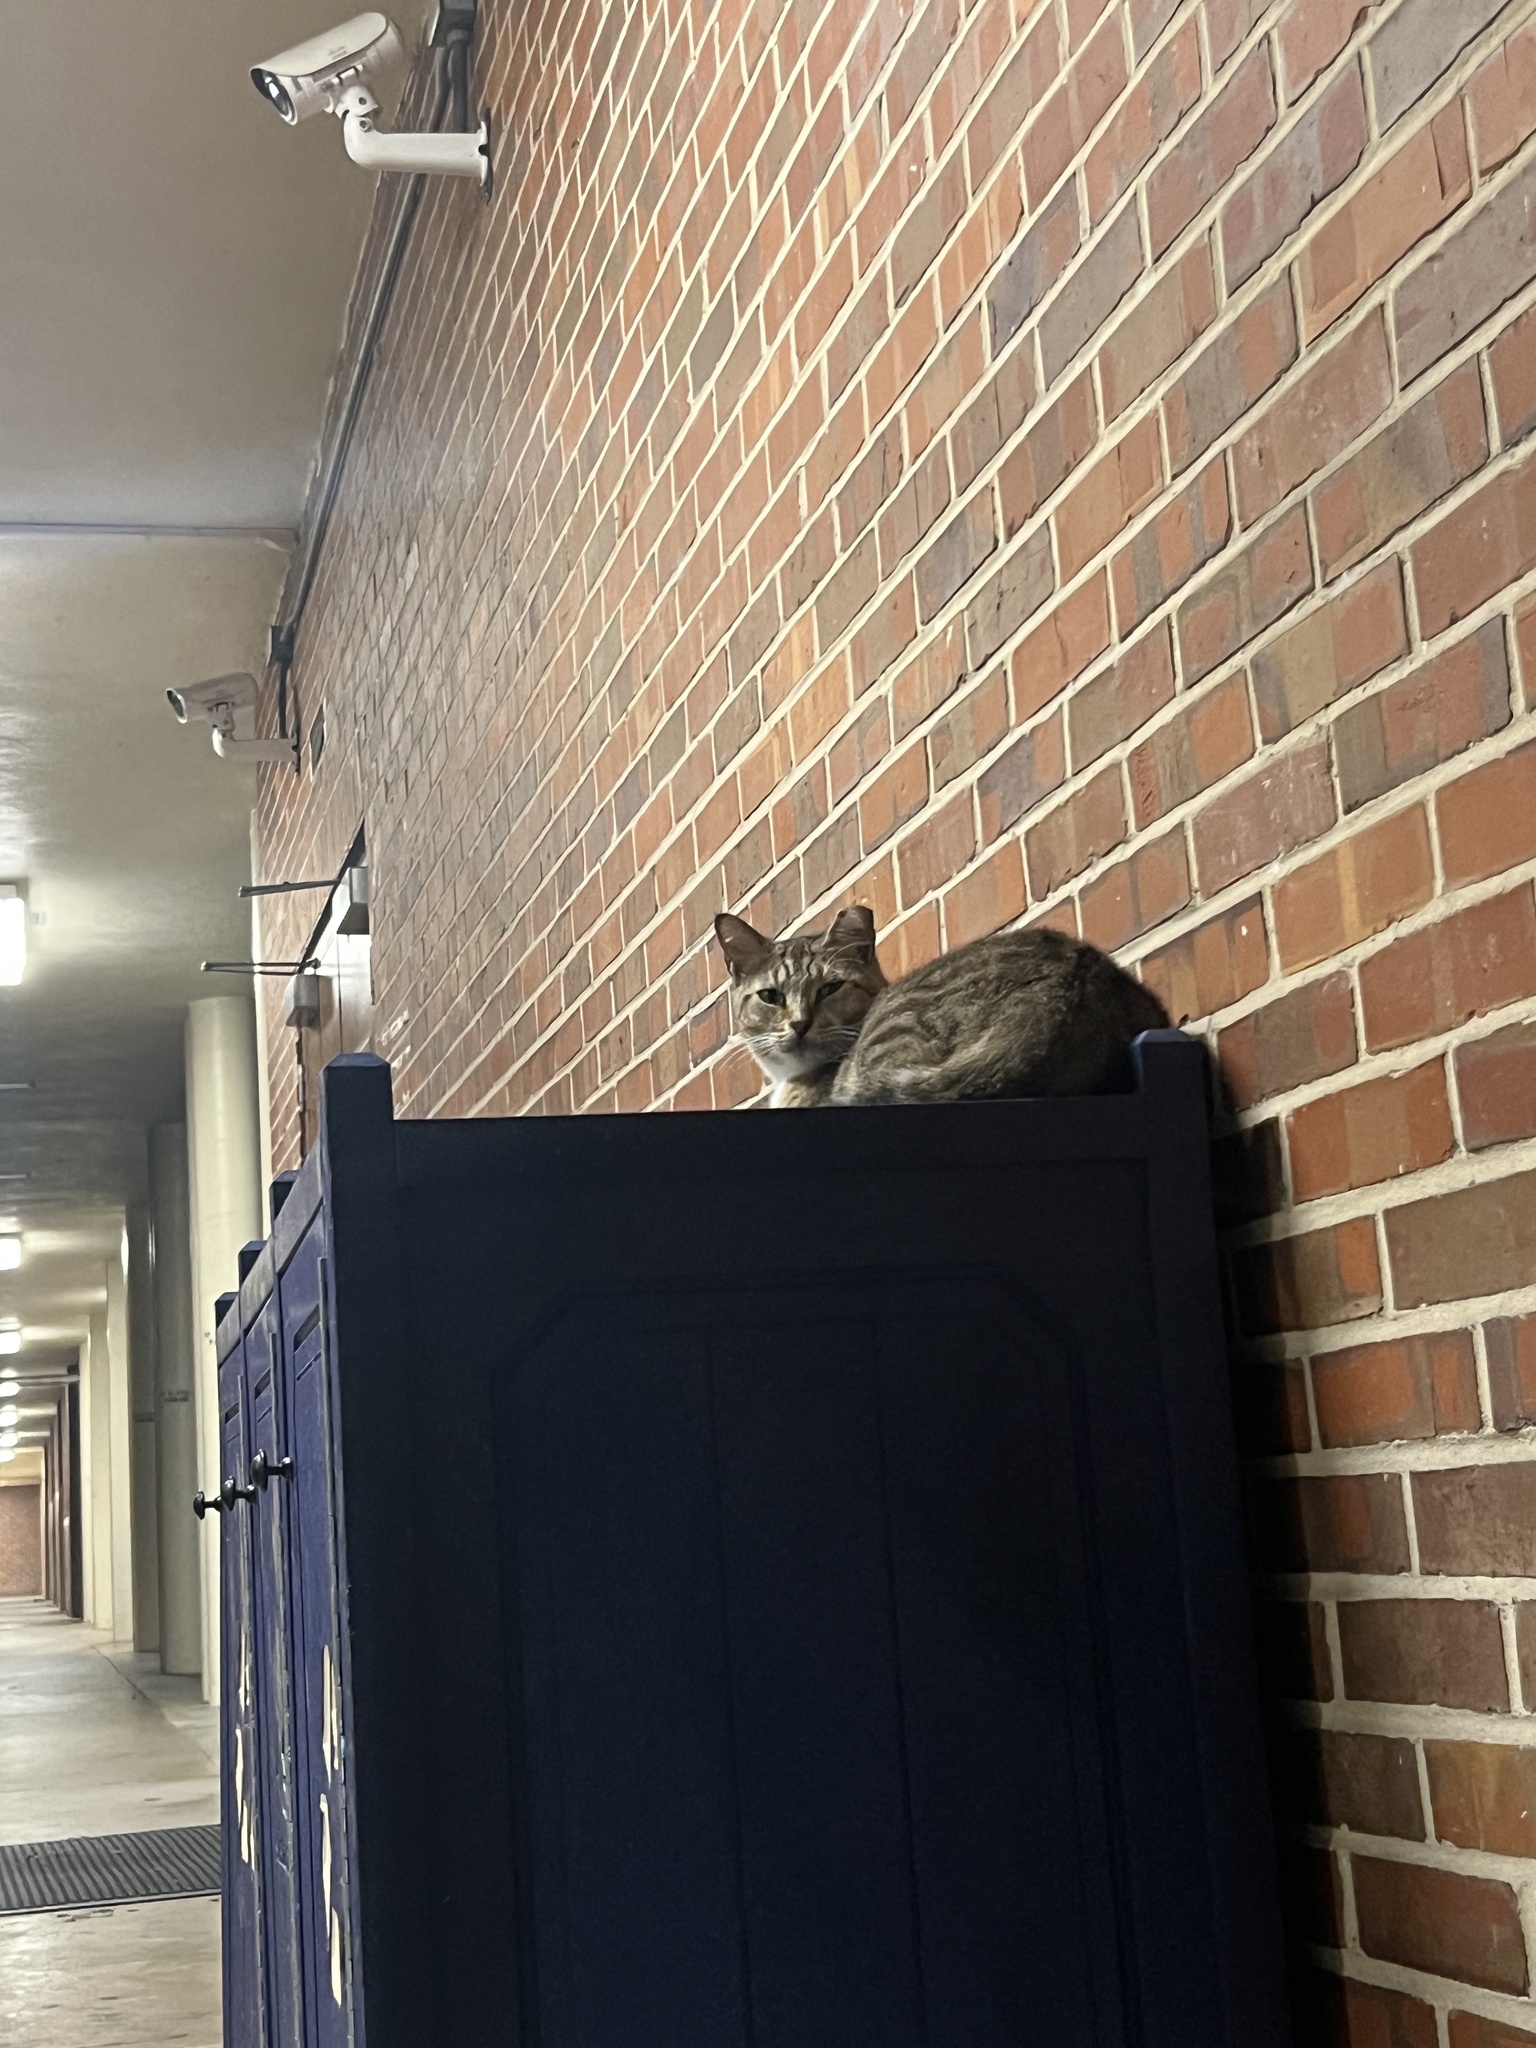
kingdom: Animalia
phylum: Chordata
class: Mammalia
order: Carnivora
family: Felidae
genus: Felis
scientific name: Felis catus
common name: Domestic cat
